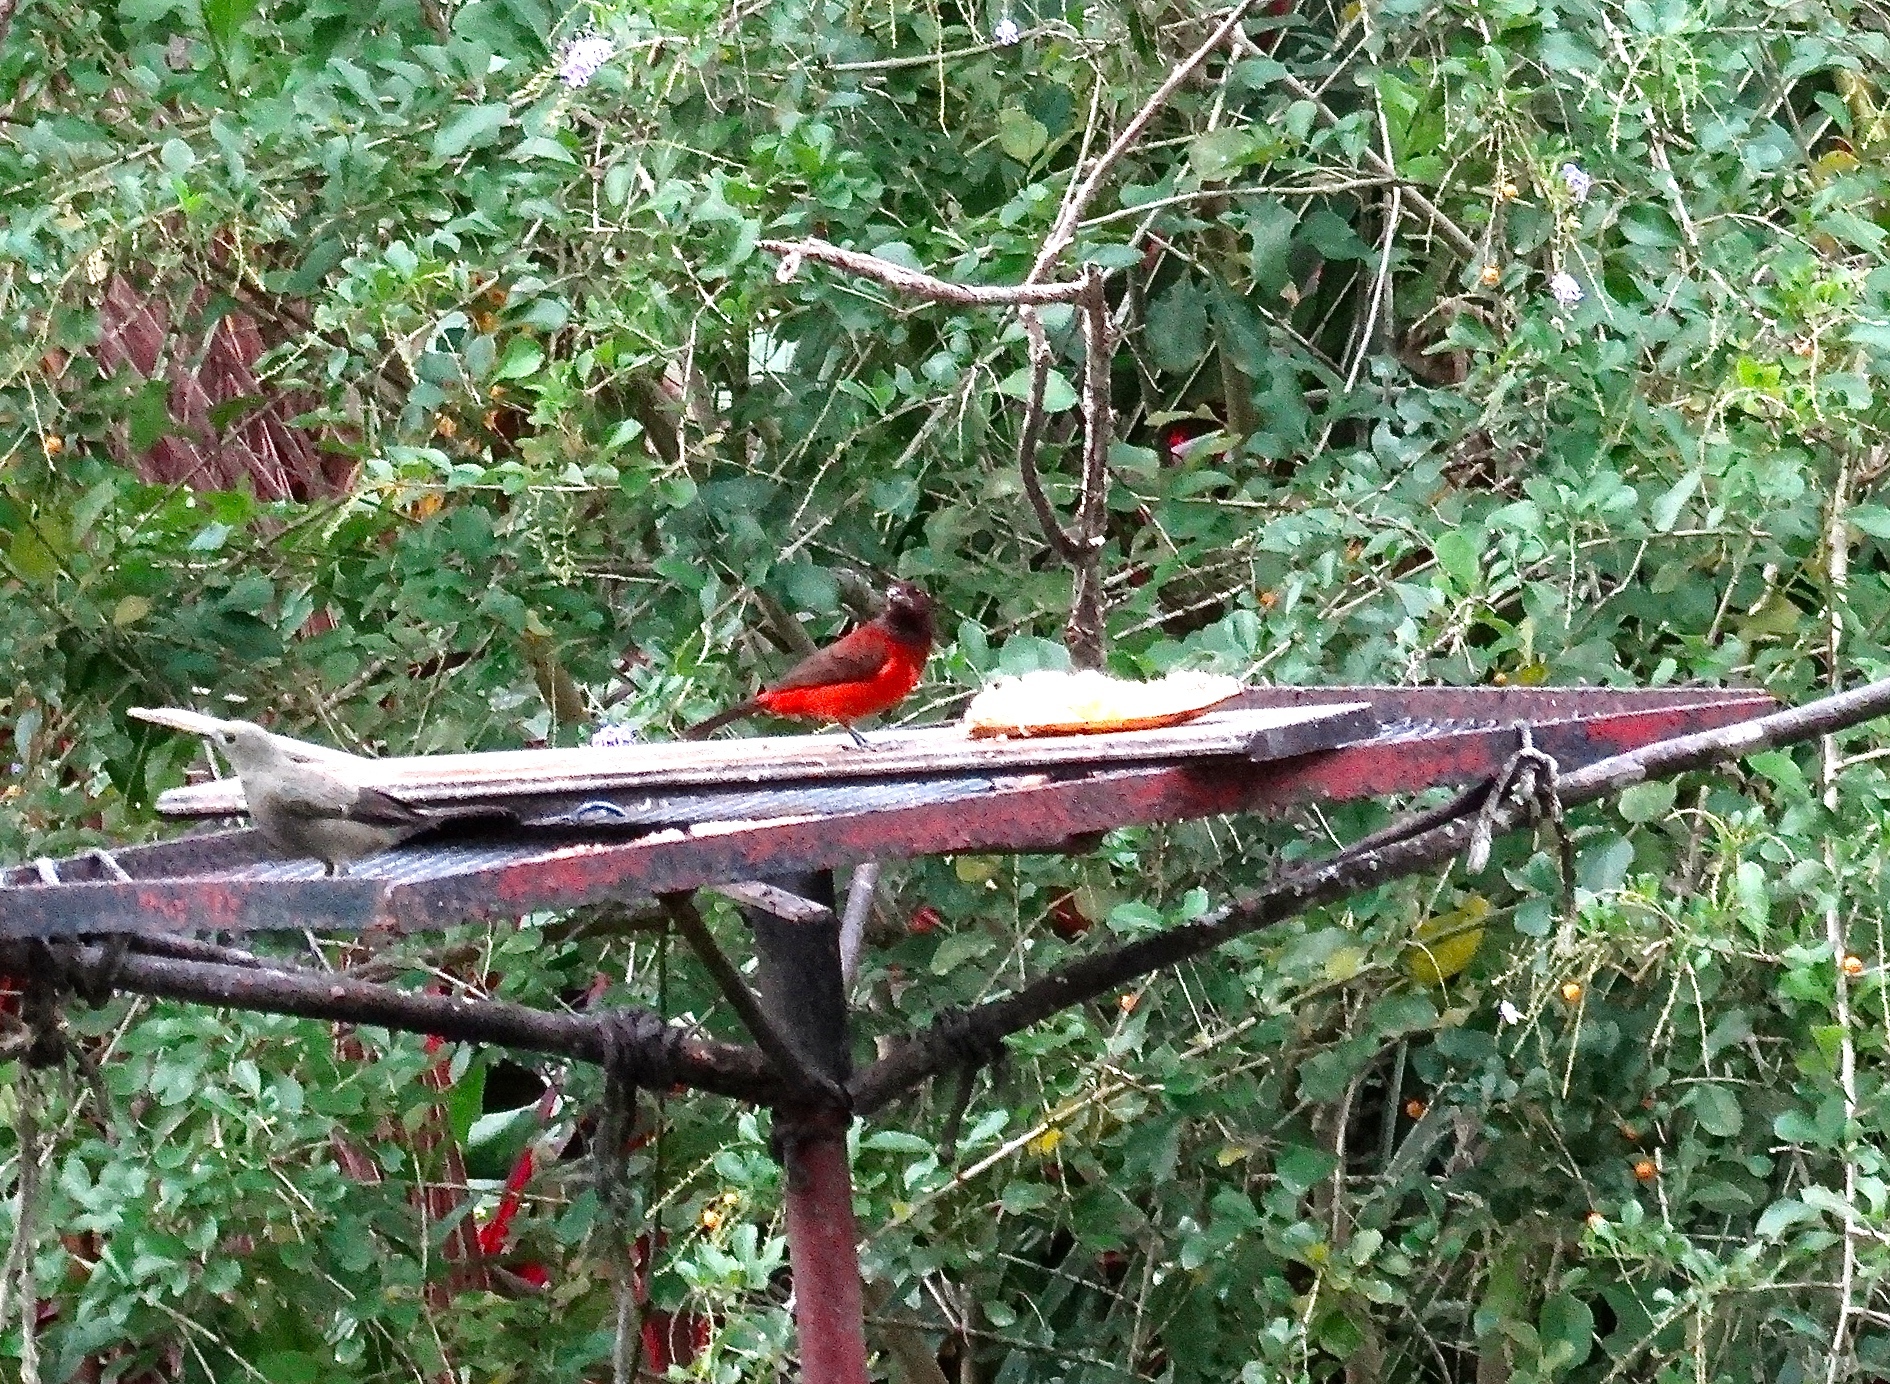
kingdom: Animalia
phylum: Chordata
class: Aves
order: Passeriformes
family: Thraupidae
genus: Ramphocelus
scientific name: Ramphocelus dimidiatus
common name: Crimson-backed tanager
